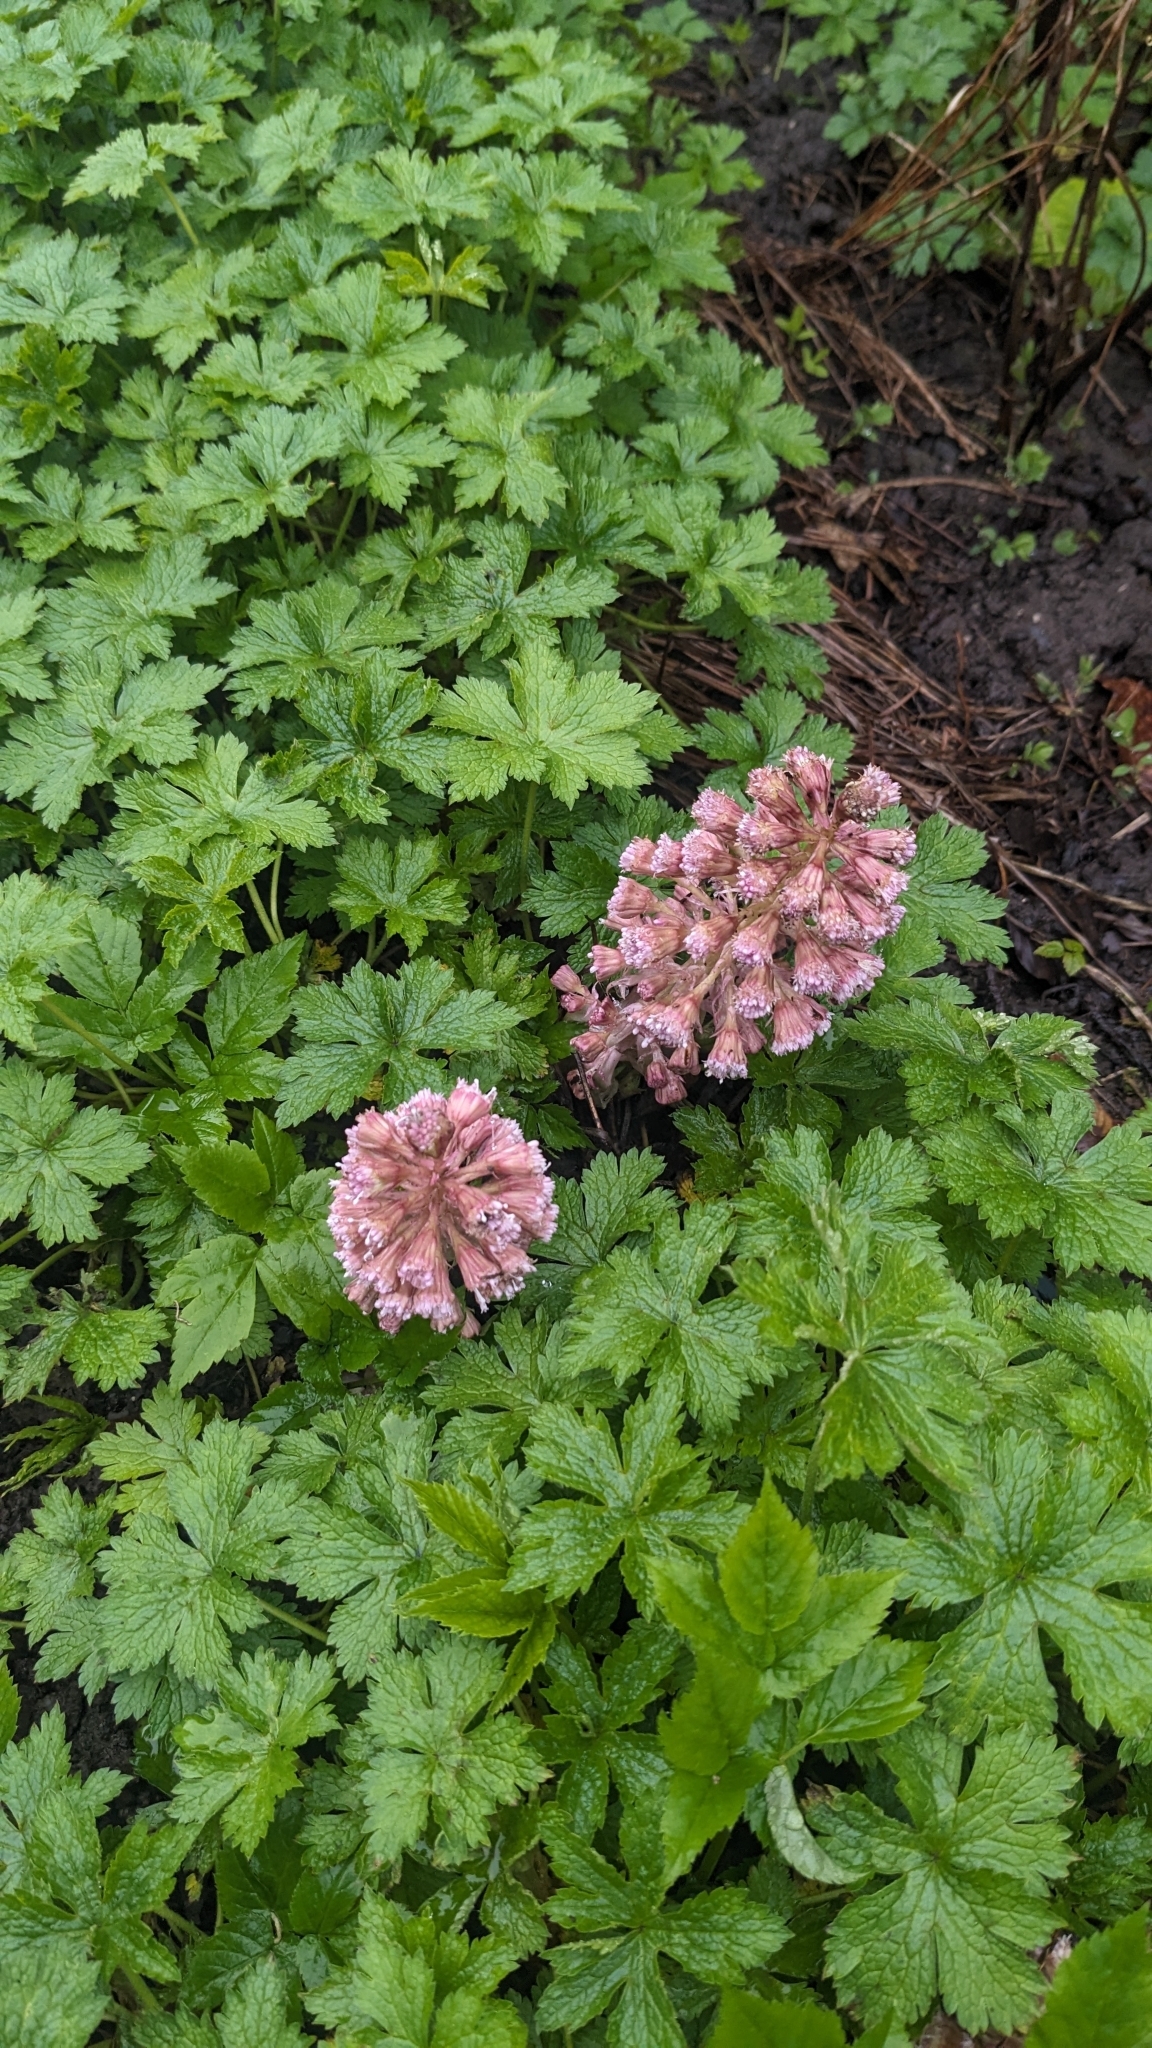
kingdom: Plantae
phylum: Tracheophyta
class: Magnoliopsida
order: Asterales
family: Asteraceae
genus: Petasites
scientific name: Petasites hybridus
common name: Butterbur
